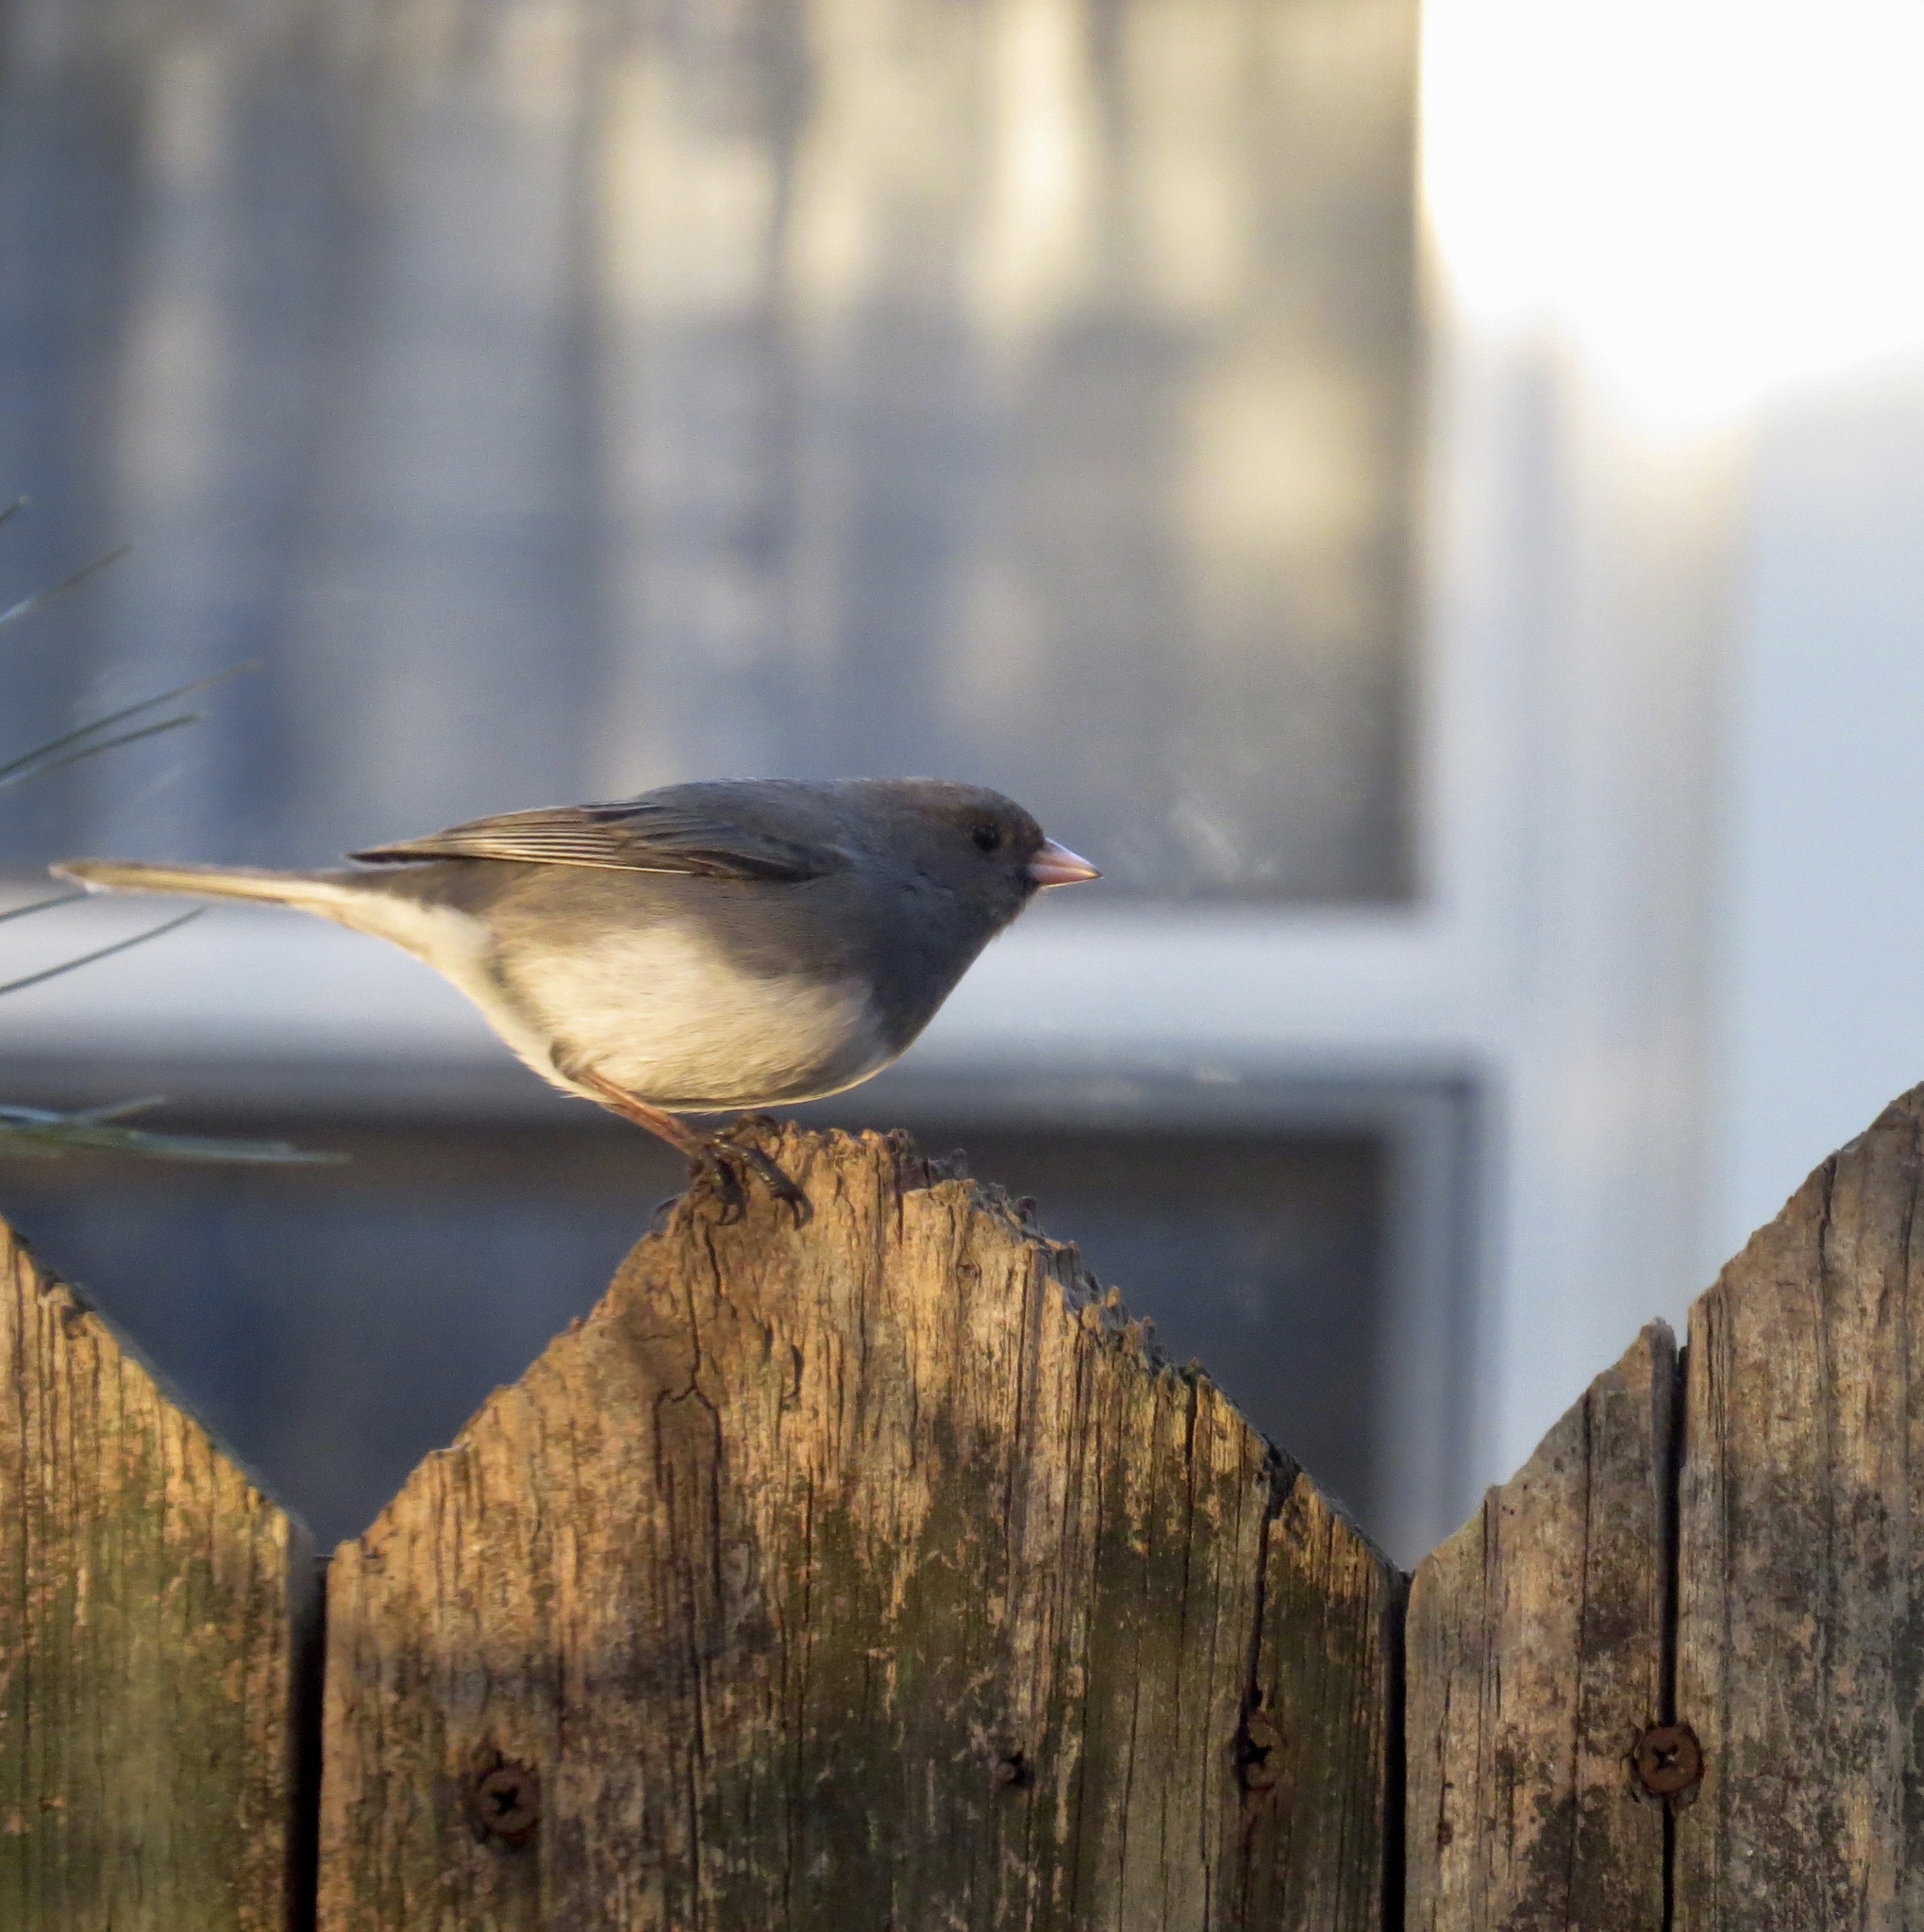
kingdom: Animalia
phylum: Chordata
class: Aves
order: Passeriformes
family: Passerellidae
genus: Junco
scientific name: Junco hyemalis
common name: Dark-eyed junco
